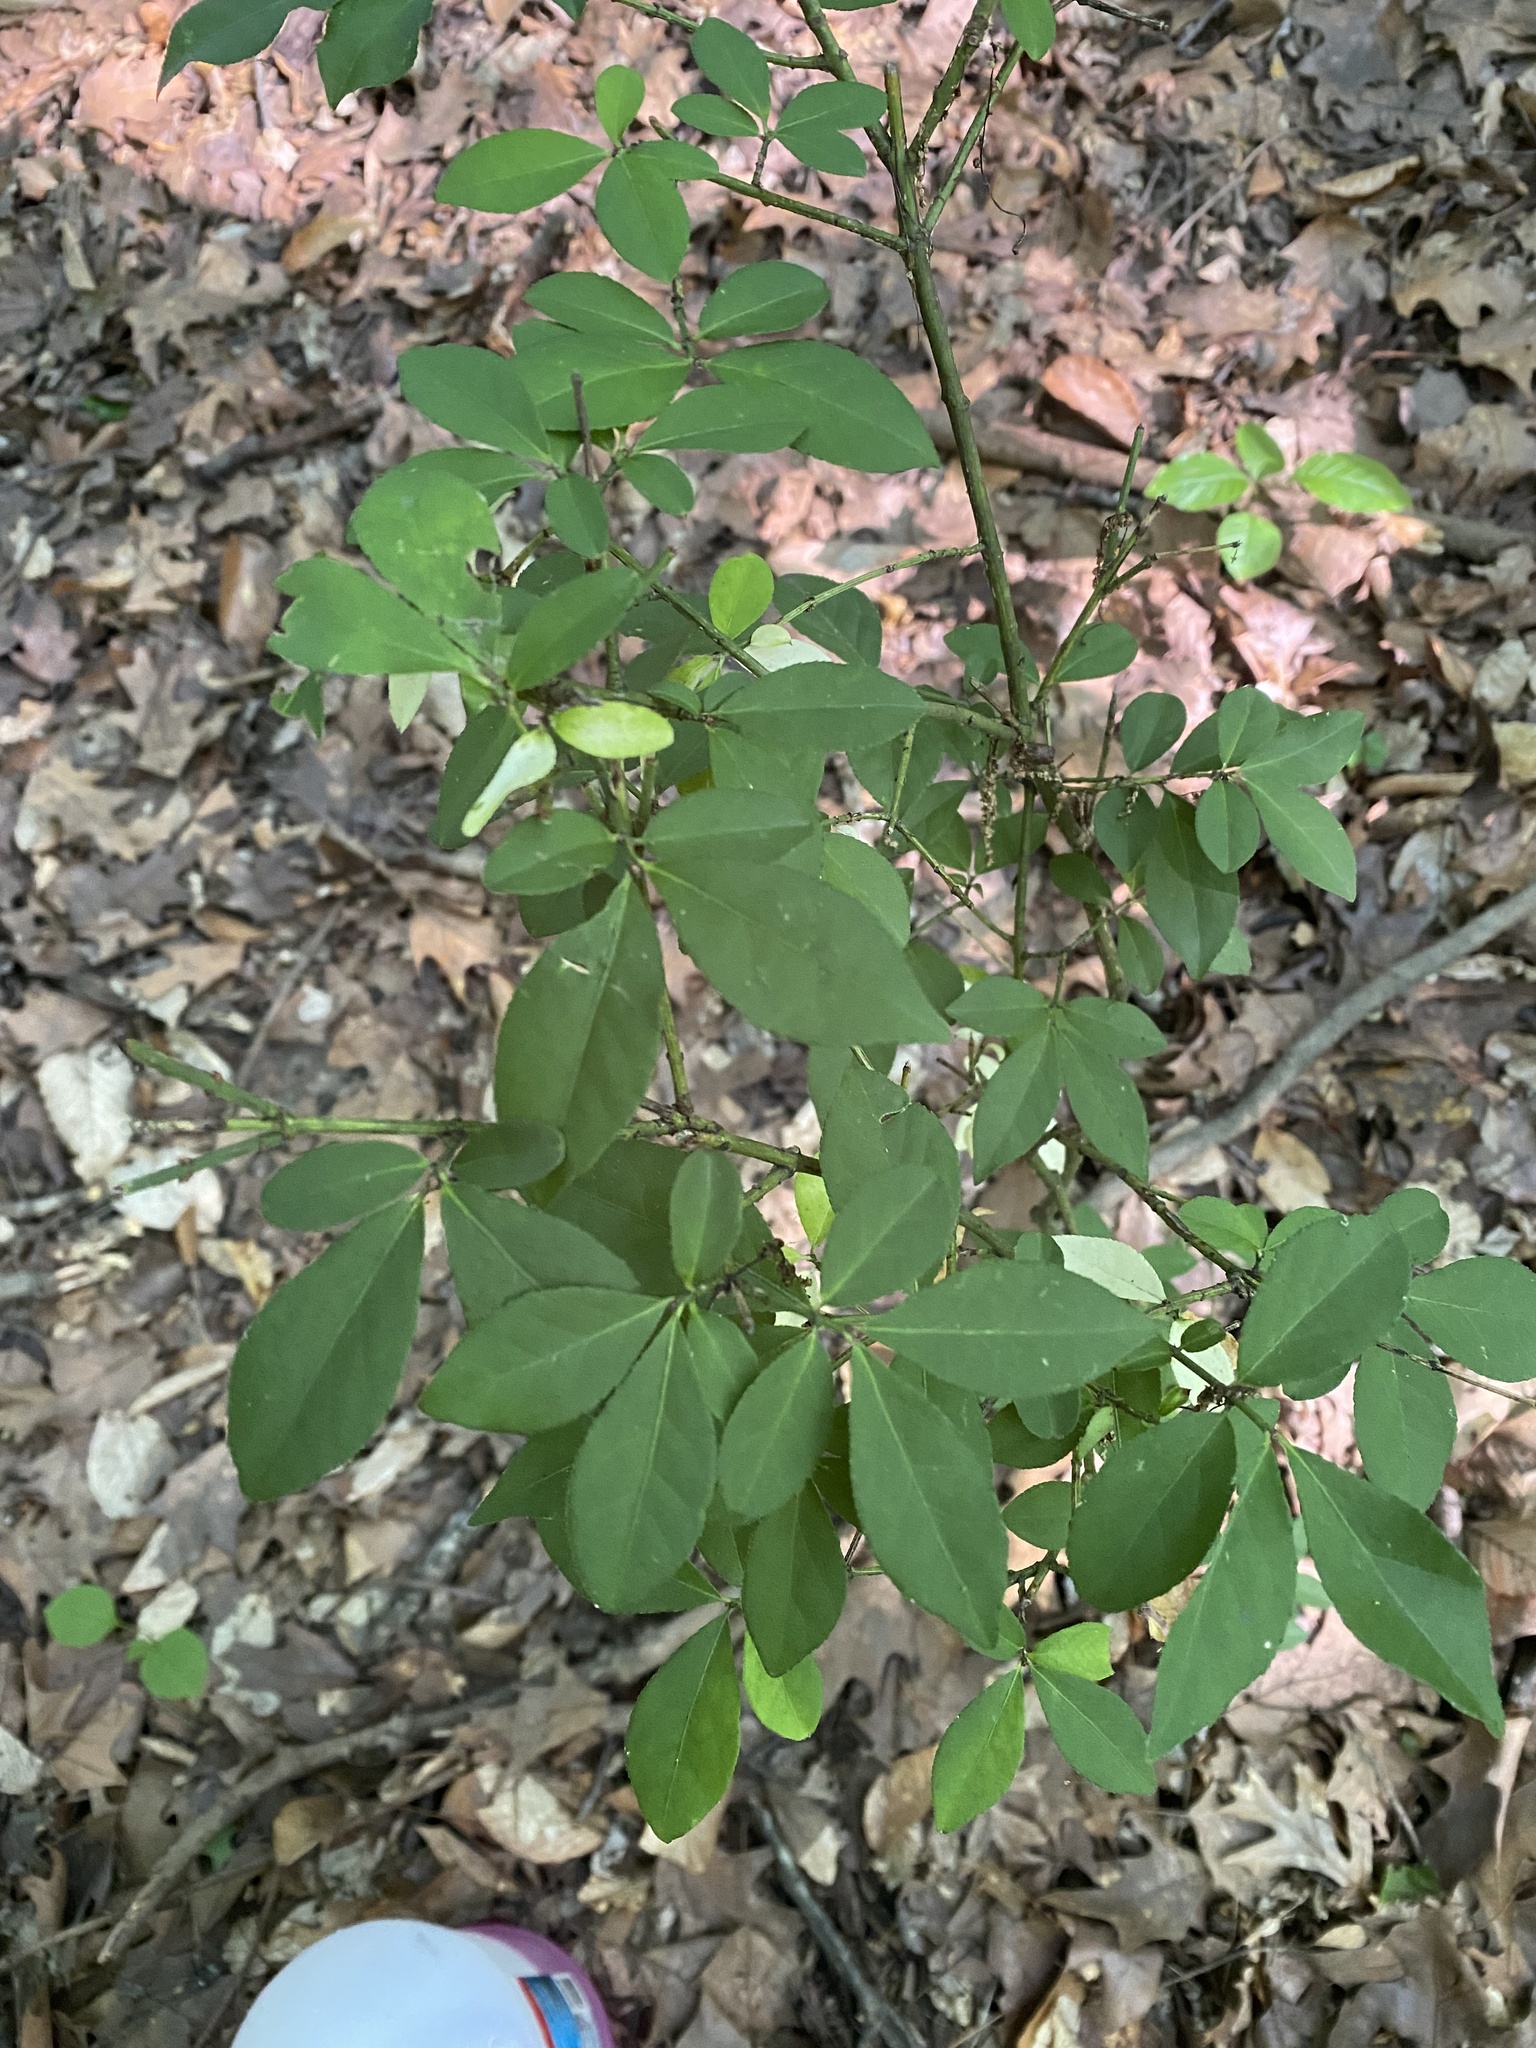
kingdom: Plantae
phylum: Tracheophyta
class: Magnoliopsida
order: Celastrales
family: Celastraceae
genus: Euonymus
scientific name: Euonymus alatus
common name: Winged euonymus
